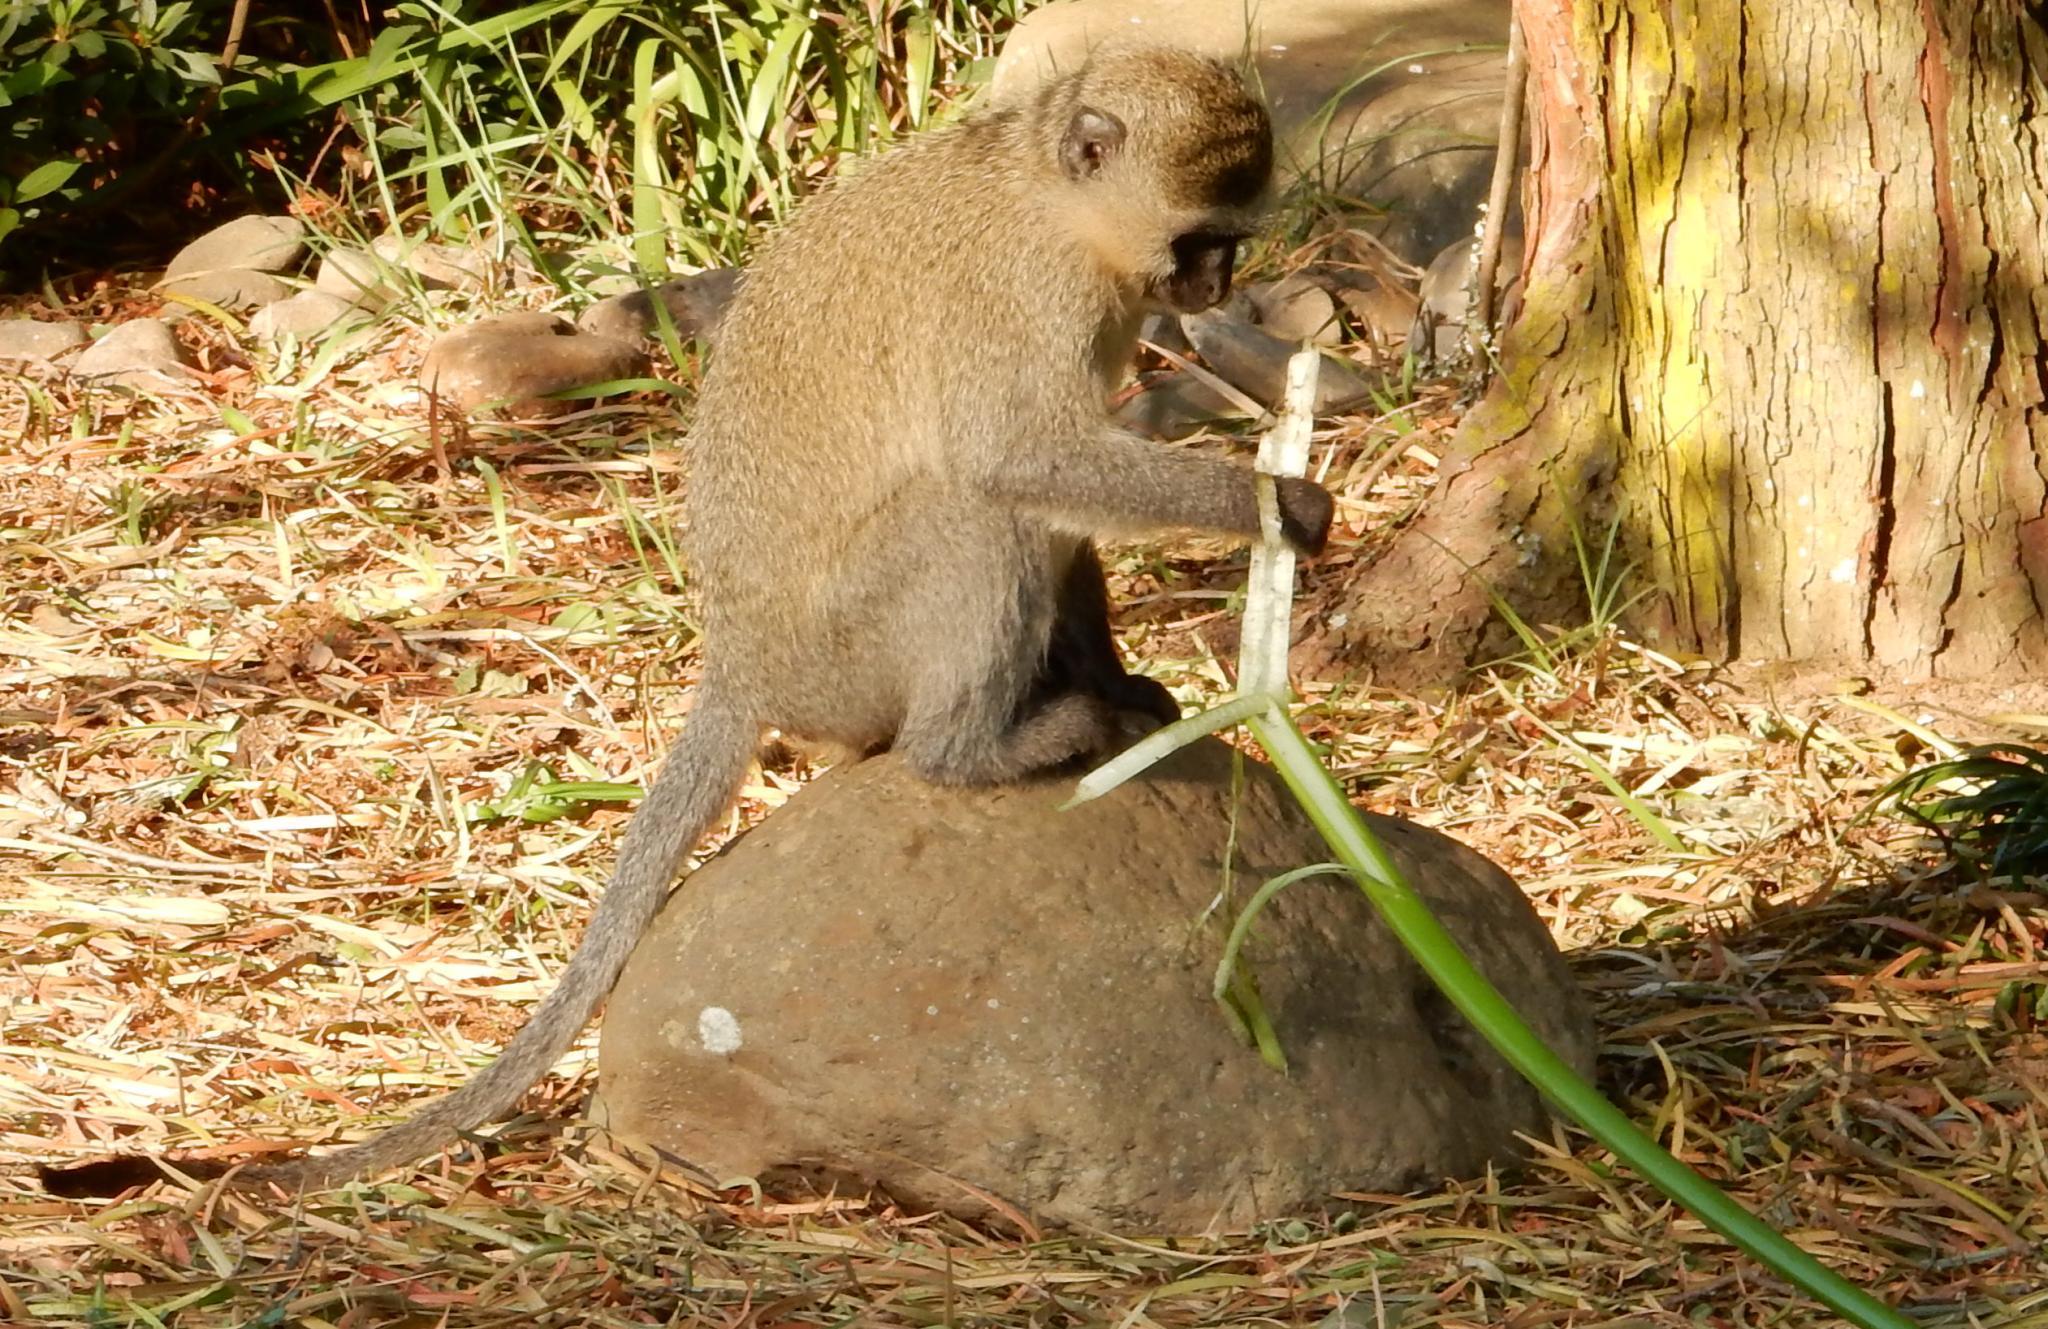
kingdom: Animalia
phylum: Chordata
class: Mammalia
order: Primates
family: Cercopithecidae
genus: Chlorocebus
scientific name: Chlorocebus pygerythrus
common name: Vervet monkey
